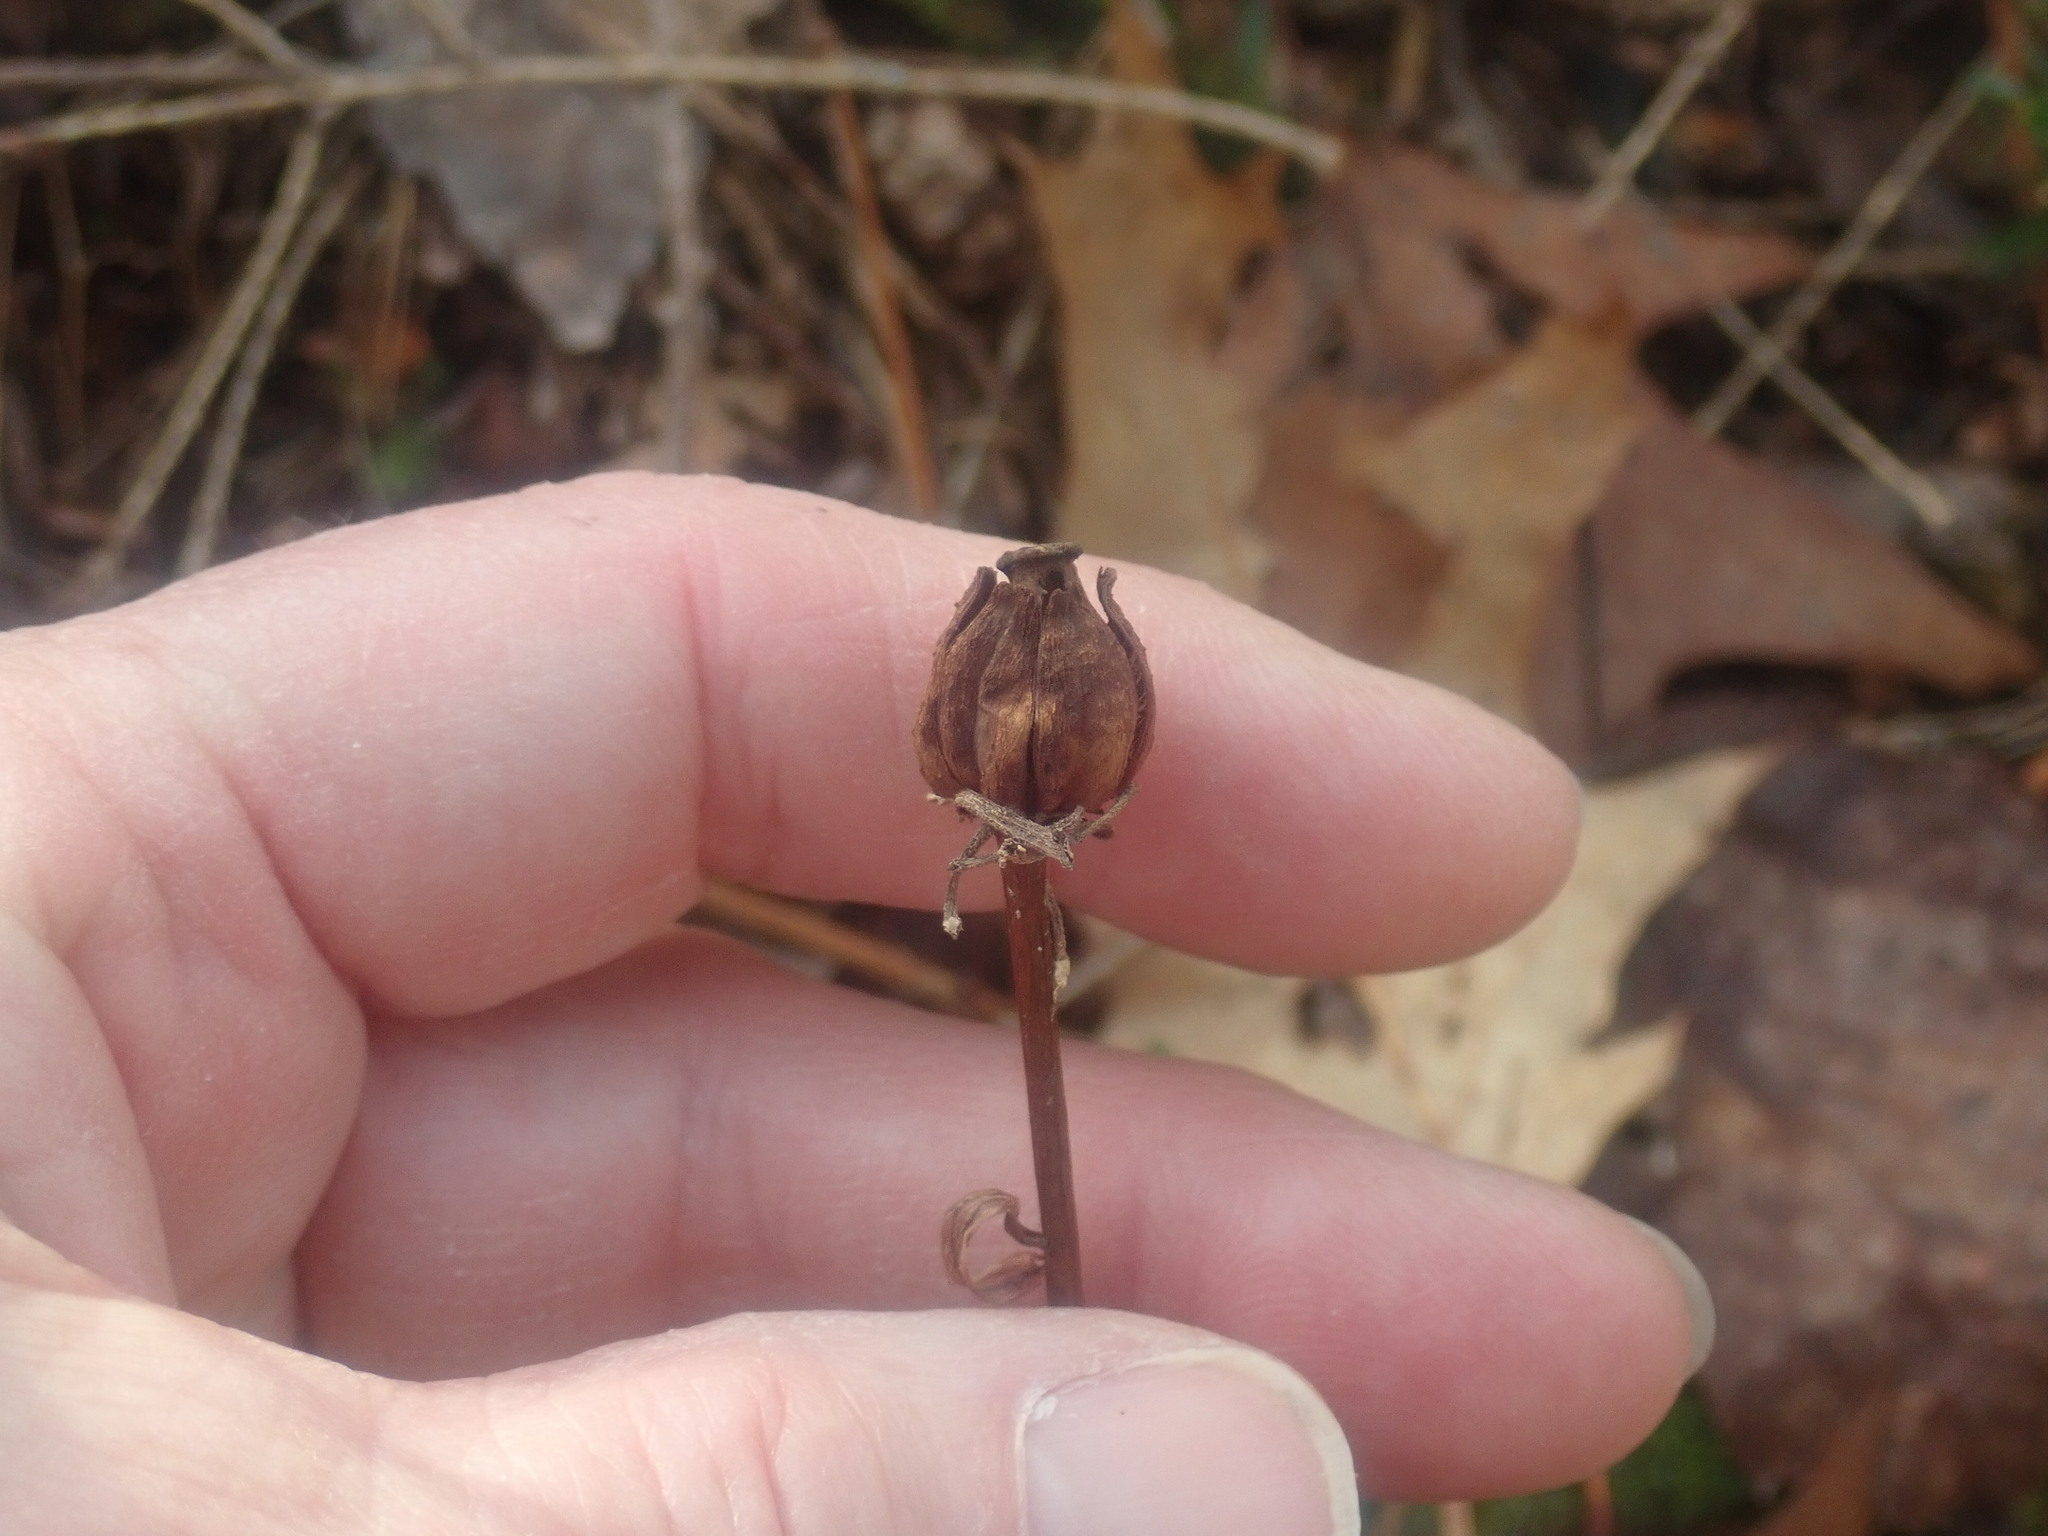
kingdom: Plantae
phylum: Tracheophyta
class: Magnoliopsida
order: Ericales
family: Ericaceae
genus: Monotropa
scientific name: Monotropa uniflora
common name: Convulsion root
